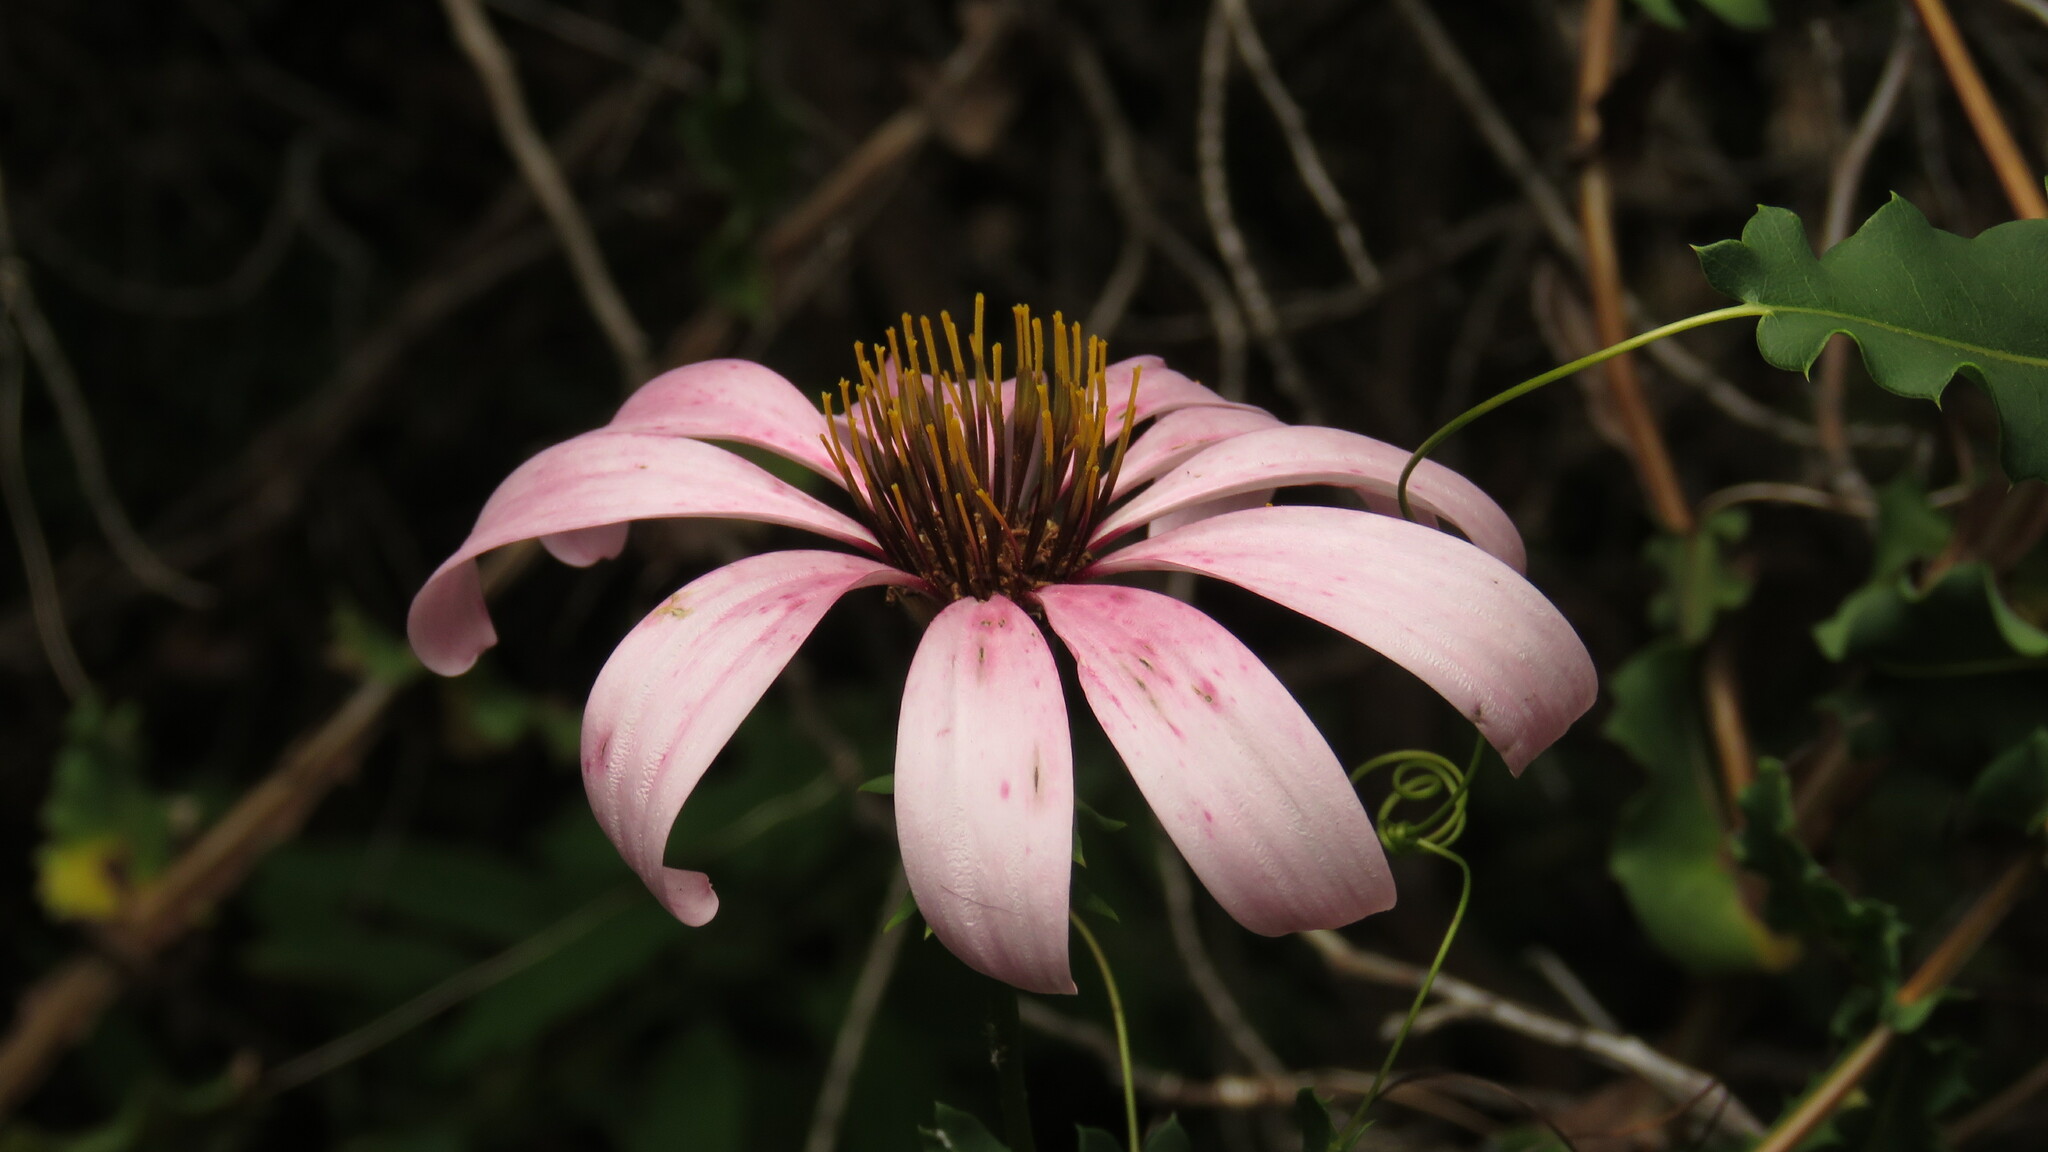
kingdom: Plantae
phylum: Tracheophyta
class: Magnoliopsida
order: Asterales
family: Asteraceae
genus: Mutisia
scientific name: Mutisia spinosa
